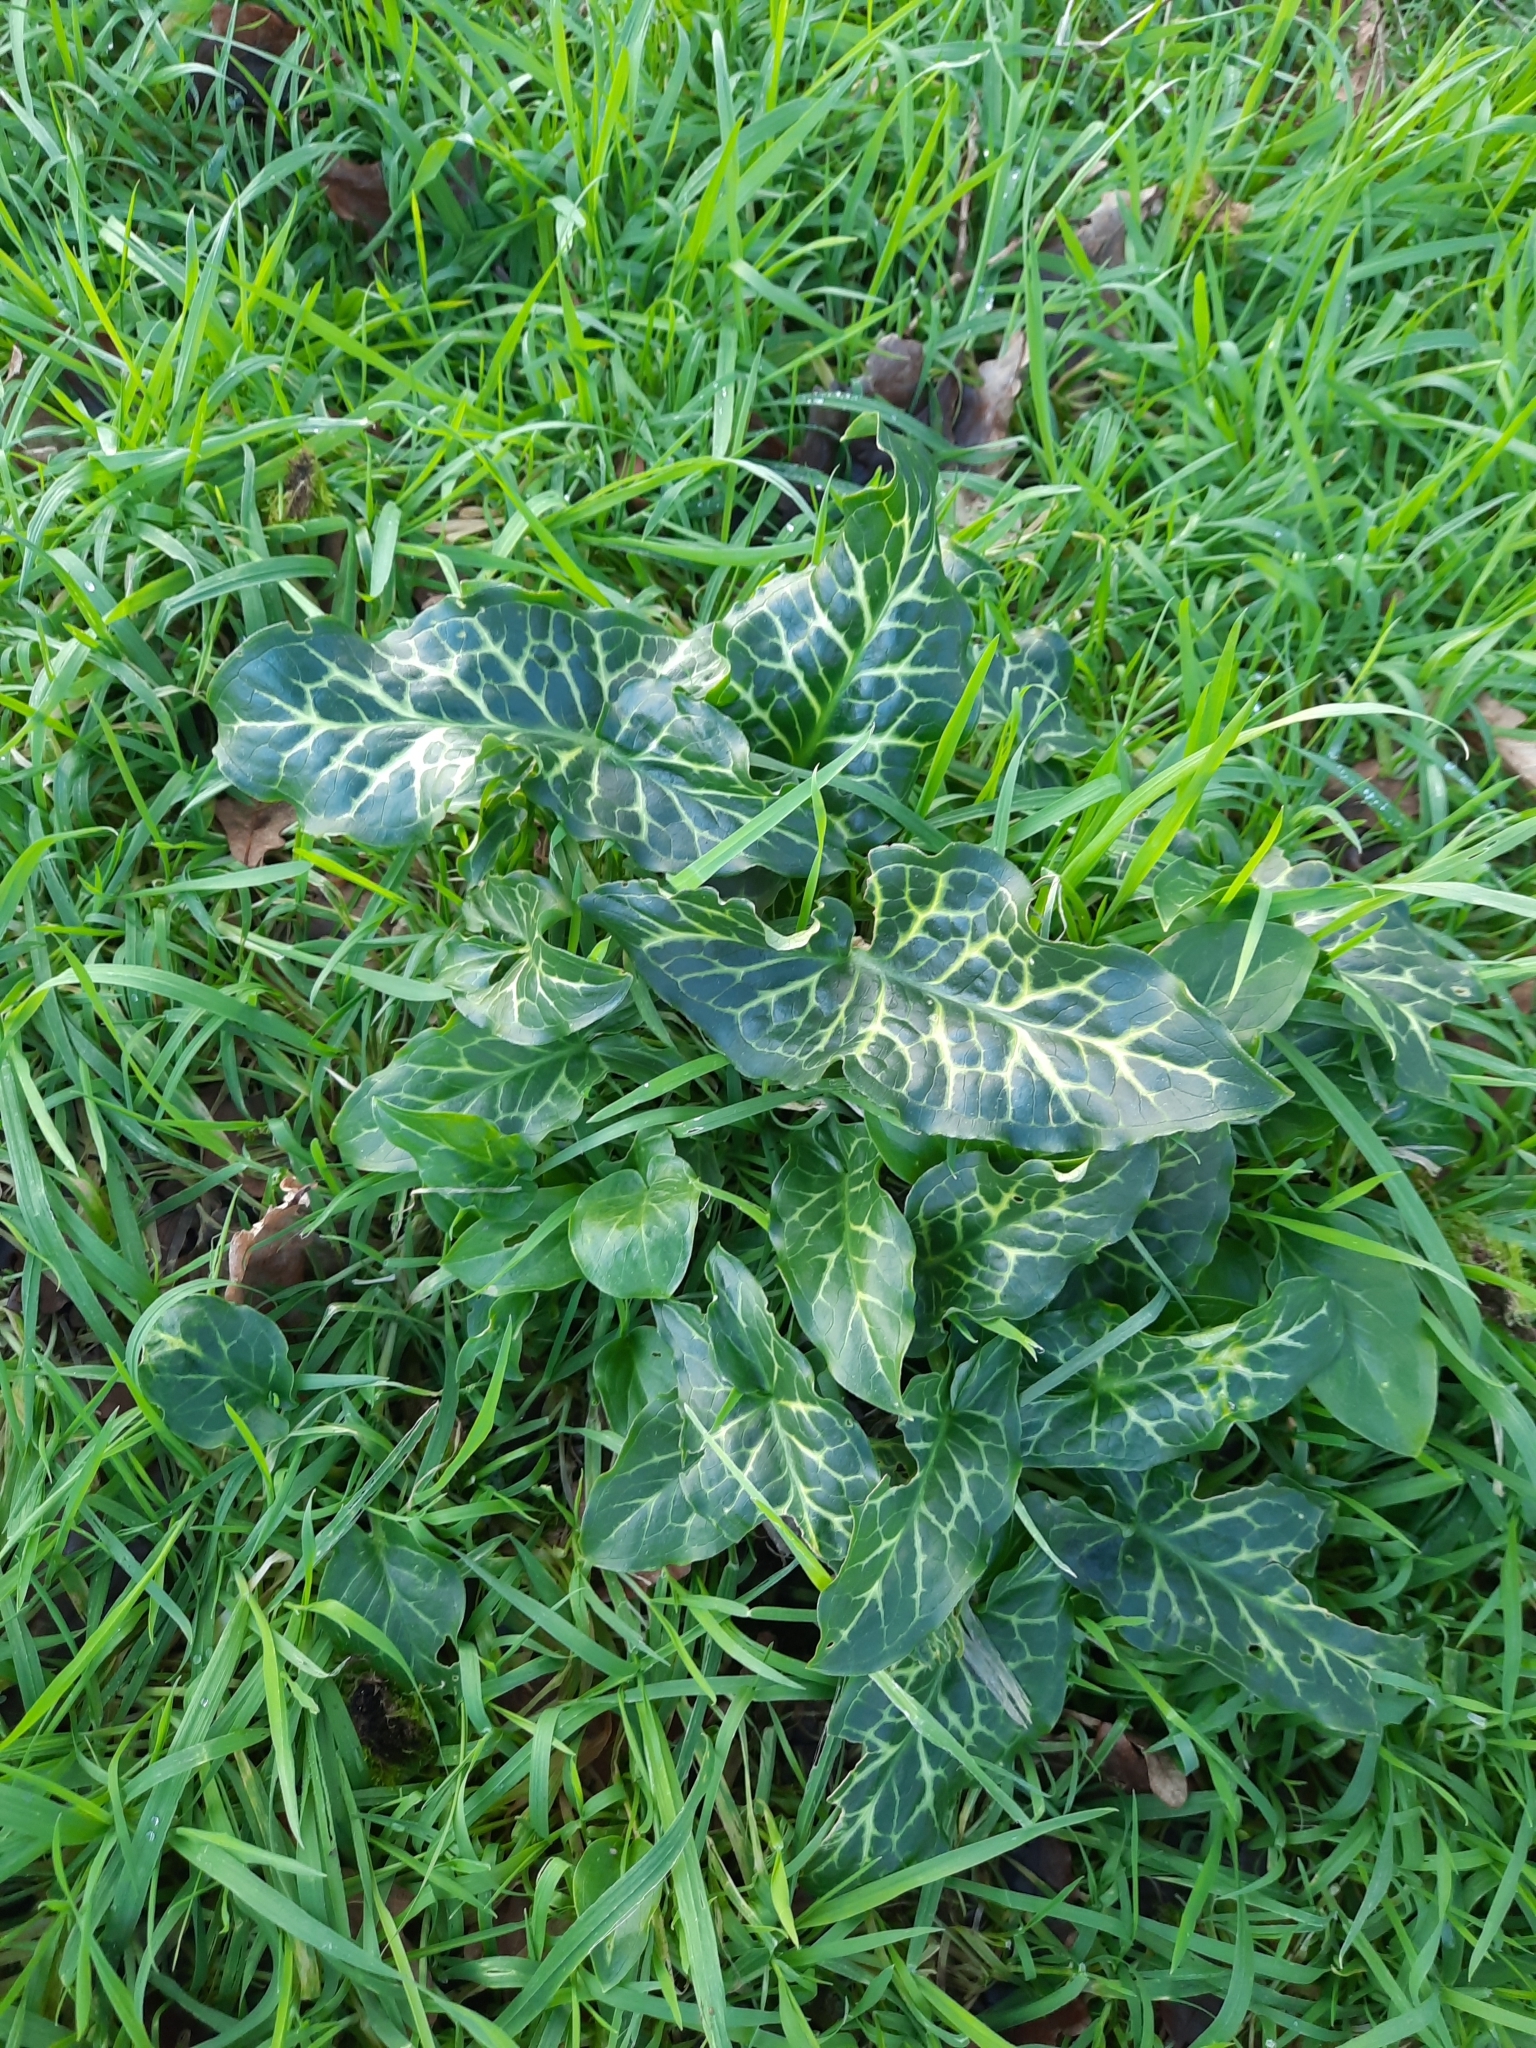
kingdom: Plantae
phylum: Tracheophyta
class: Liliopsida
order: Alismatales
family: Araceae
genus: Arum
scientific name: Arum italicum
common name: Italian lords-and-ladies
